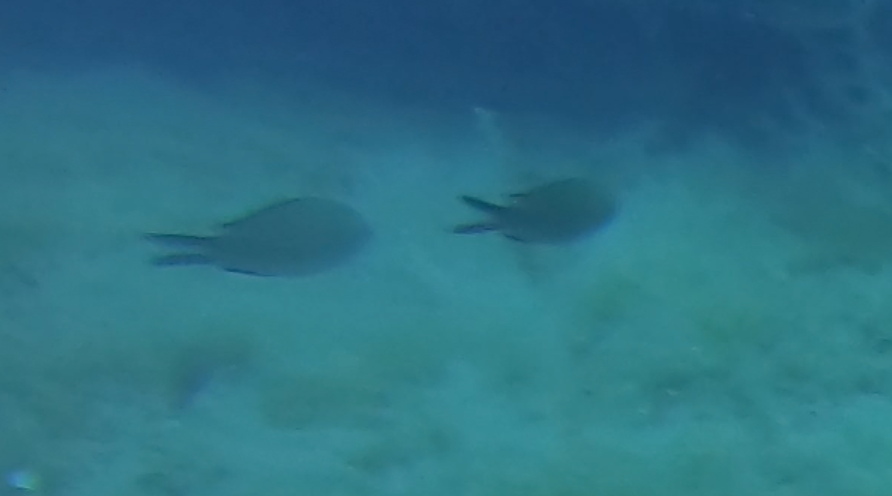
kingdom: Animalia
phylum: Chordata
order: Perciformes
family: Pomacentridae
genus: Chromis
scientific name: Chromis chromis
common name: Damselfish
